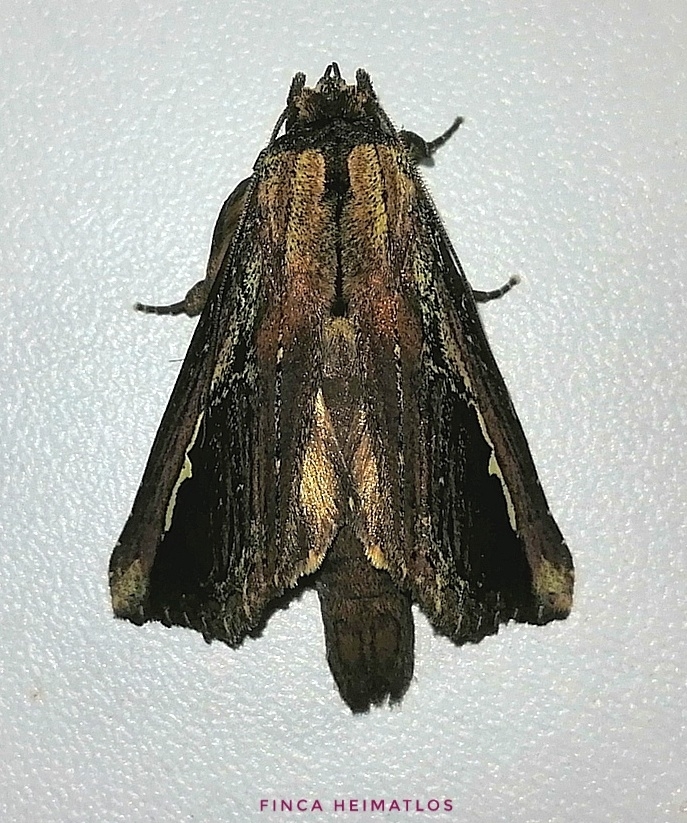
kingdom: Animalia
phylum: Arthropoda
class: Insecta
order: Lepidoptera
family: Notodontidae
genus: Gopha
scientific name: Gopha
